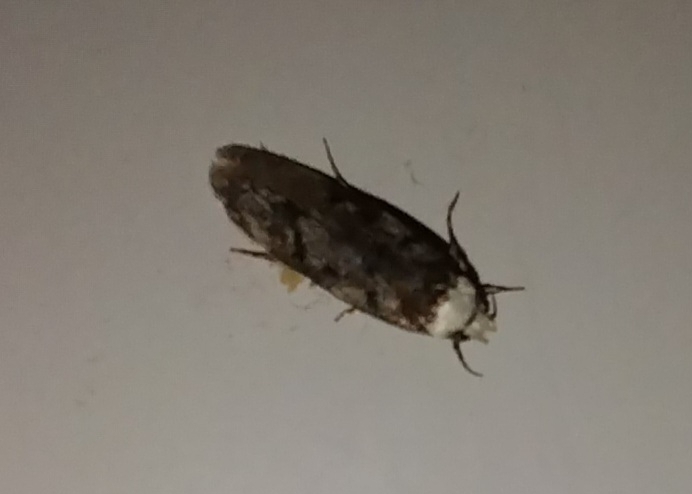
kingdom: Animalia
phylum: Arthropoda
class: Insecta
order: Lepidoptera
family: Oecophoridae
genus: Endrosis
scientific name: Endrosis sarcitrella
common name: White-shouldered house moth
